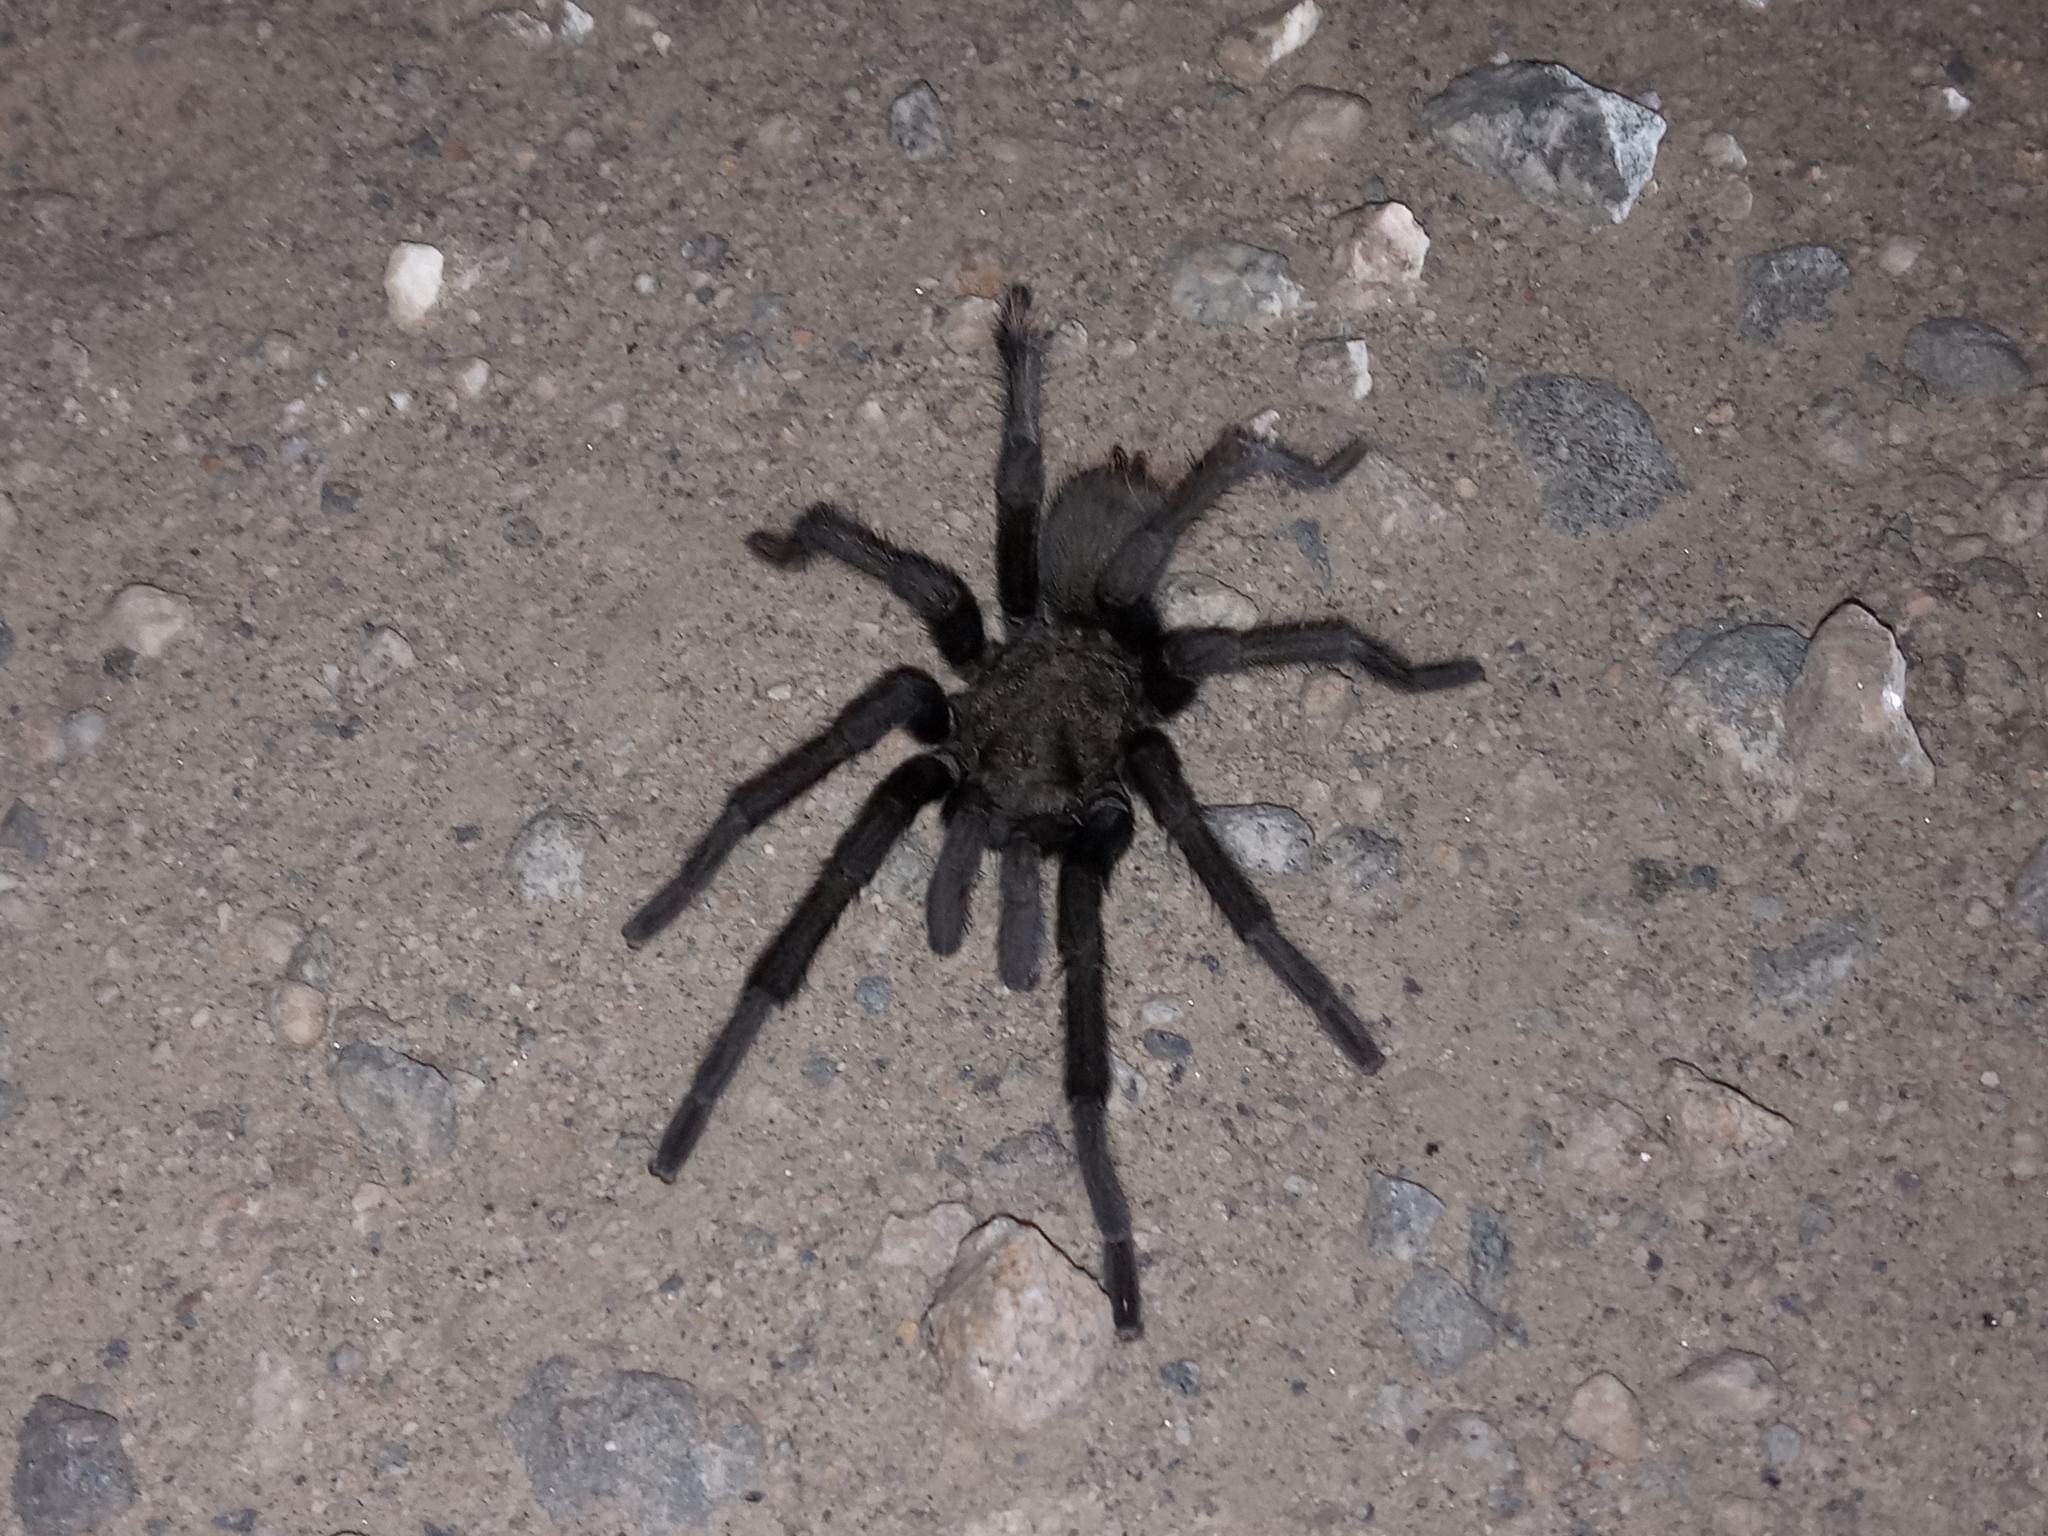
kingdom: Animalia
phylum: Arthropoda
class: Arachnida
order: Araneae
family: Theraphosidae
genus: Aphonopelma
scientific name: Aphonopelma steindachneri
